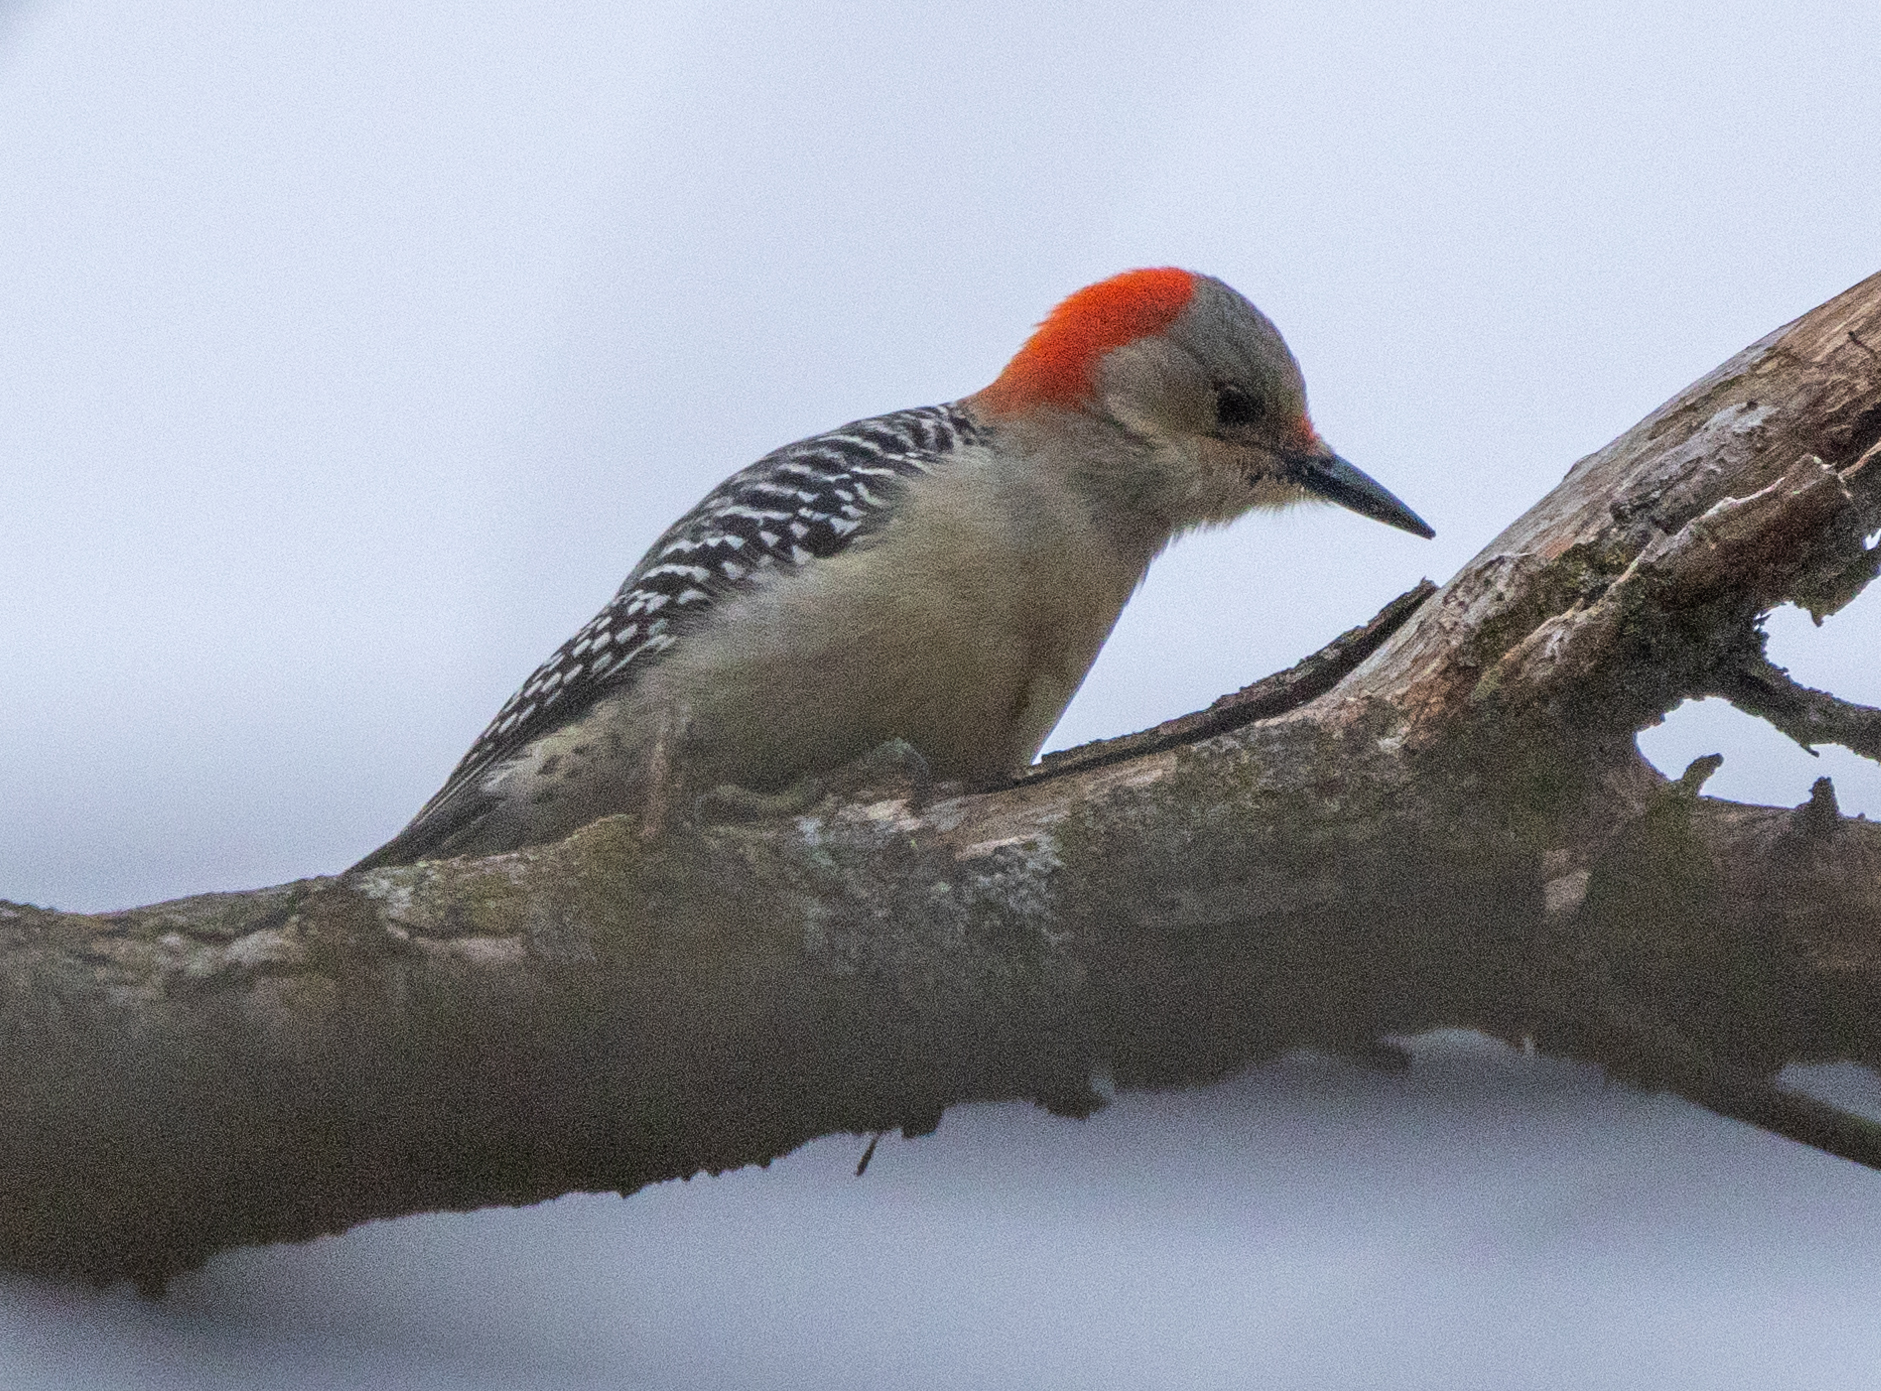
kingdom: Animalia
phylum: Chordata
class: Aves
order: Piciformes
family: Picidae
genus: Melanerpes
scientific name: Melanerpes carolinus
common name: Red-bellied woodpecker
